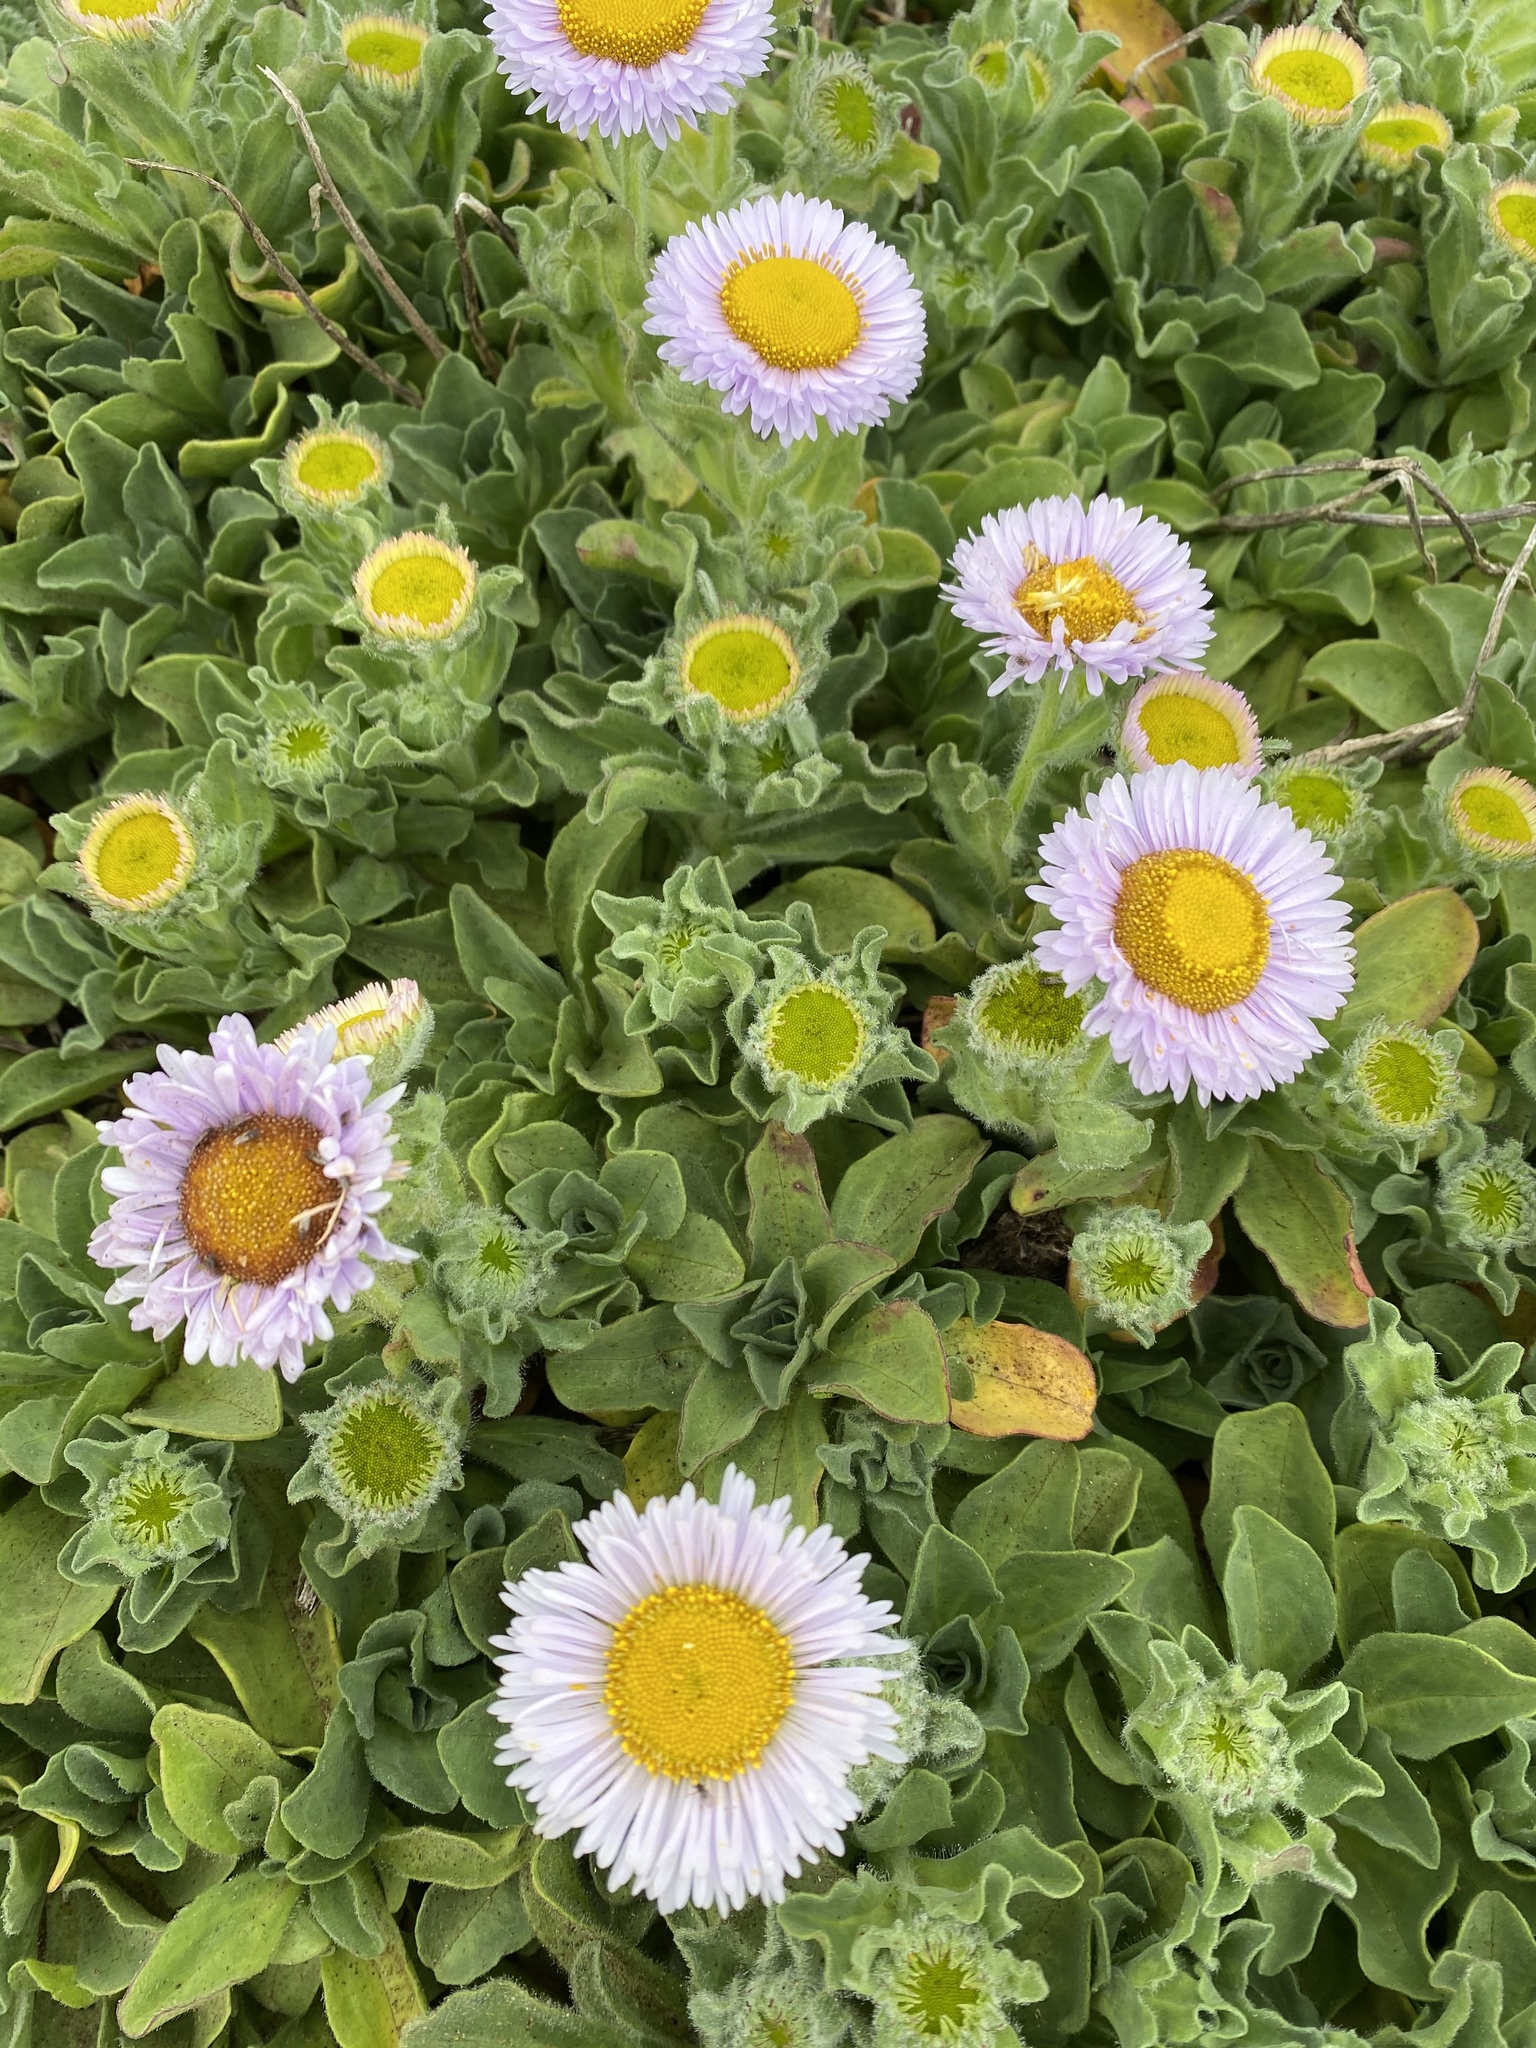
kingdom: Plantae
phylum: Tracheophyta
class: Magnoliopsida
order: Asterales
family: Asteraceae
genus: Erigeron
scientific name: Erigeron glaucus
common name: Seaside daisy
